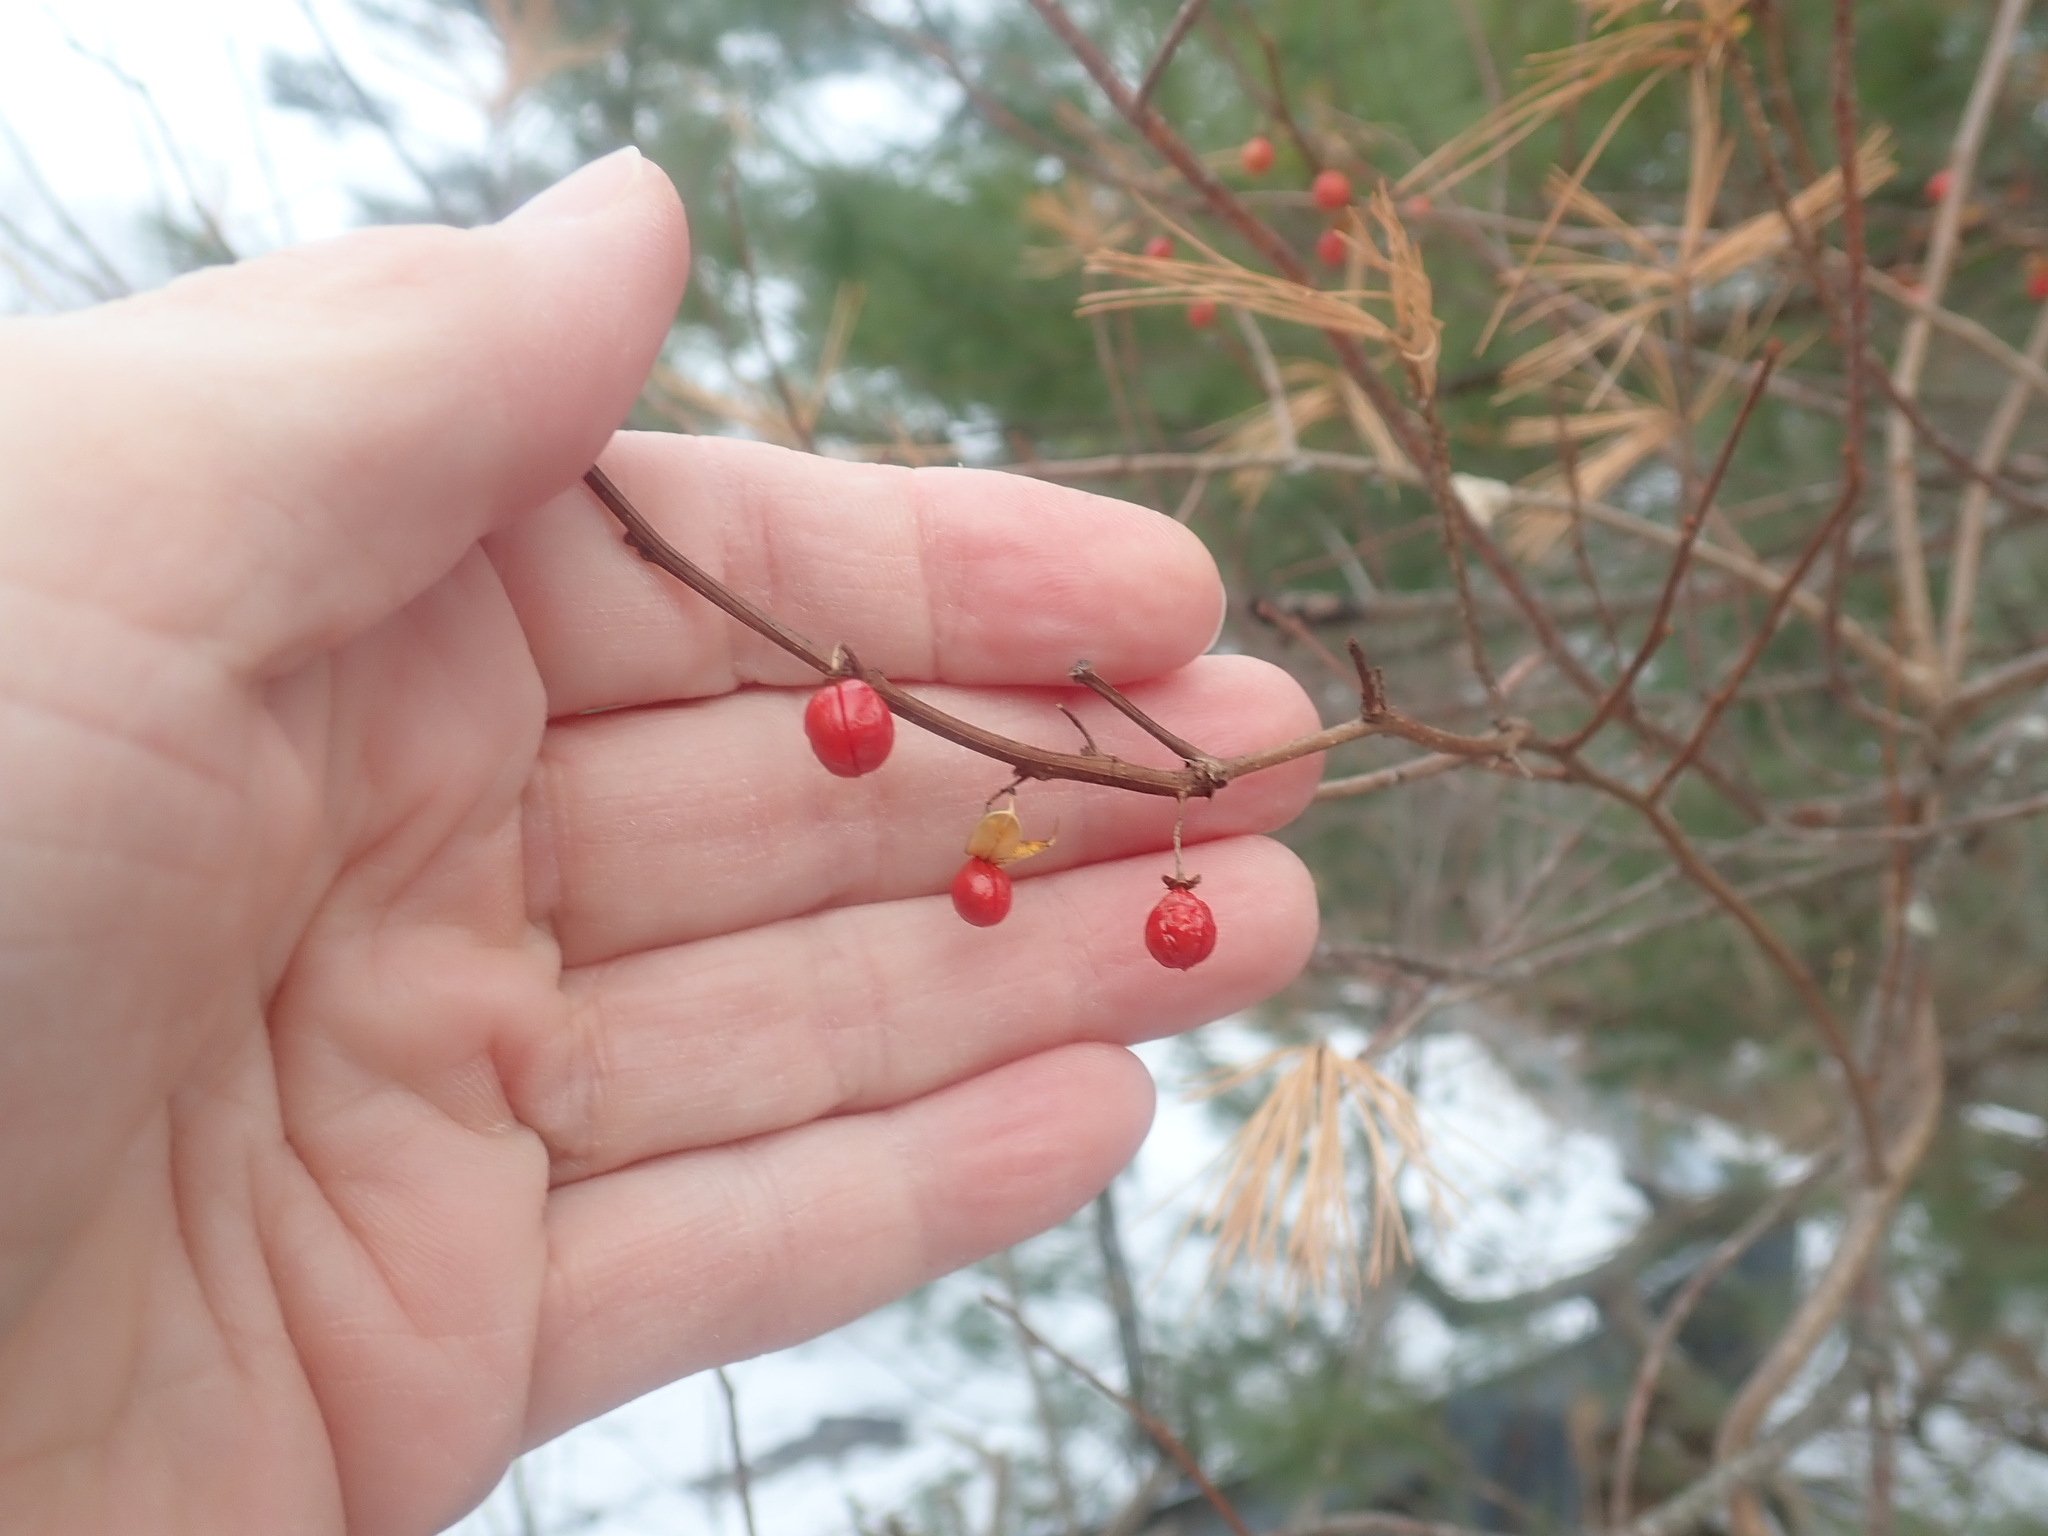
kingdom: Plantae
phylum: Tracheophyta
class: Magnoliopsida
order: Celastrales
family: Celastraceae
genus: Celastrus
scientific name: Celastrus orbiculatus
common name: Oriental bittersweet
